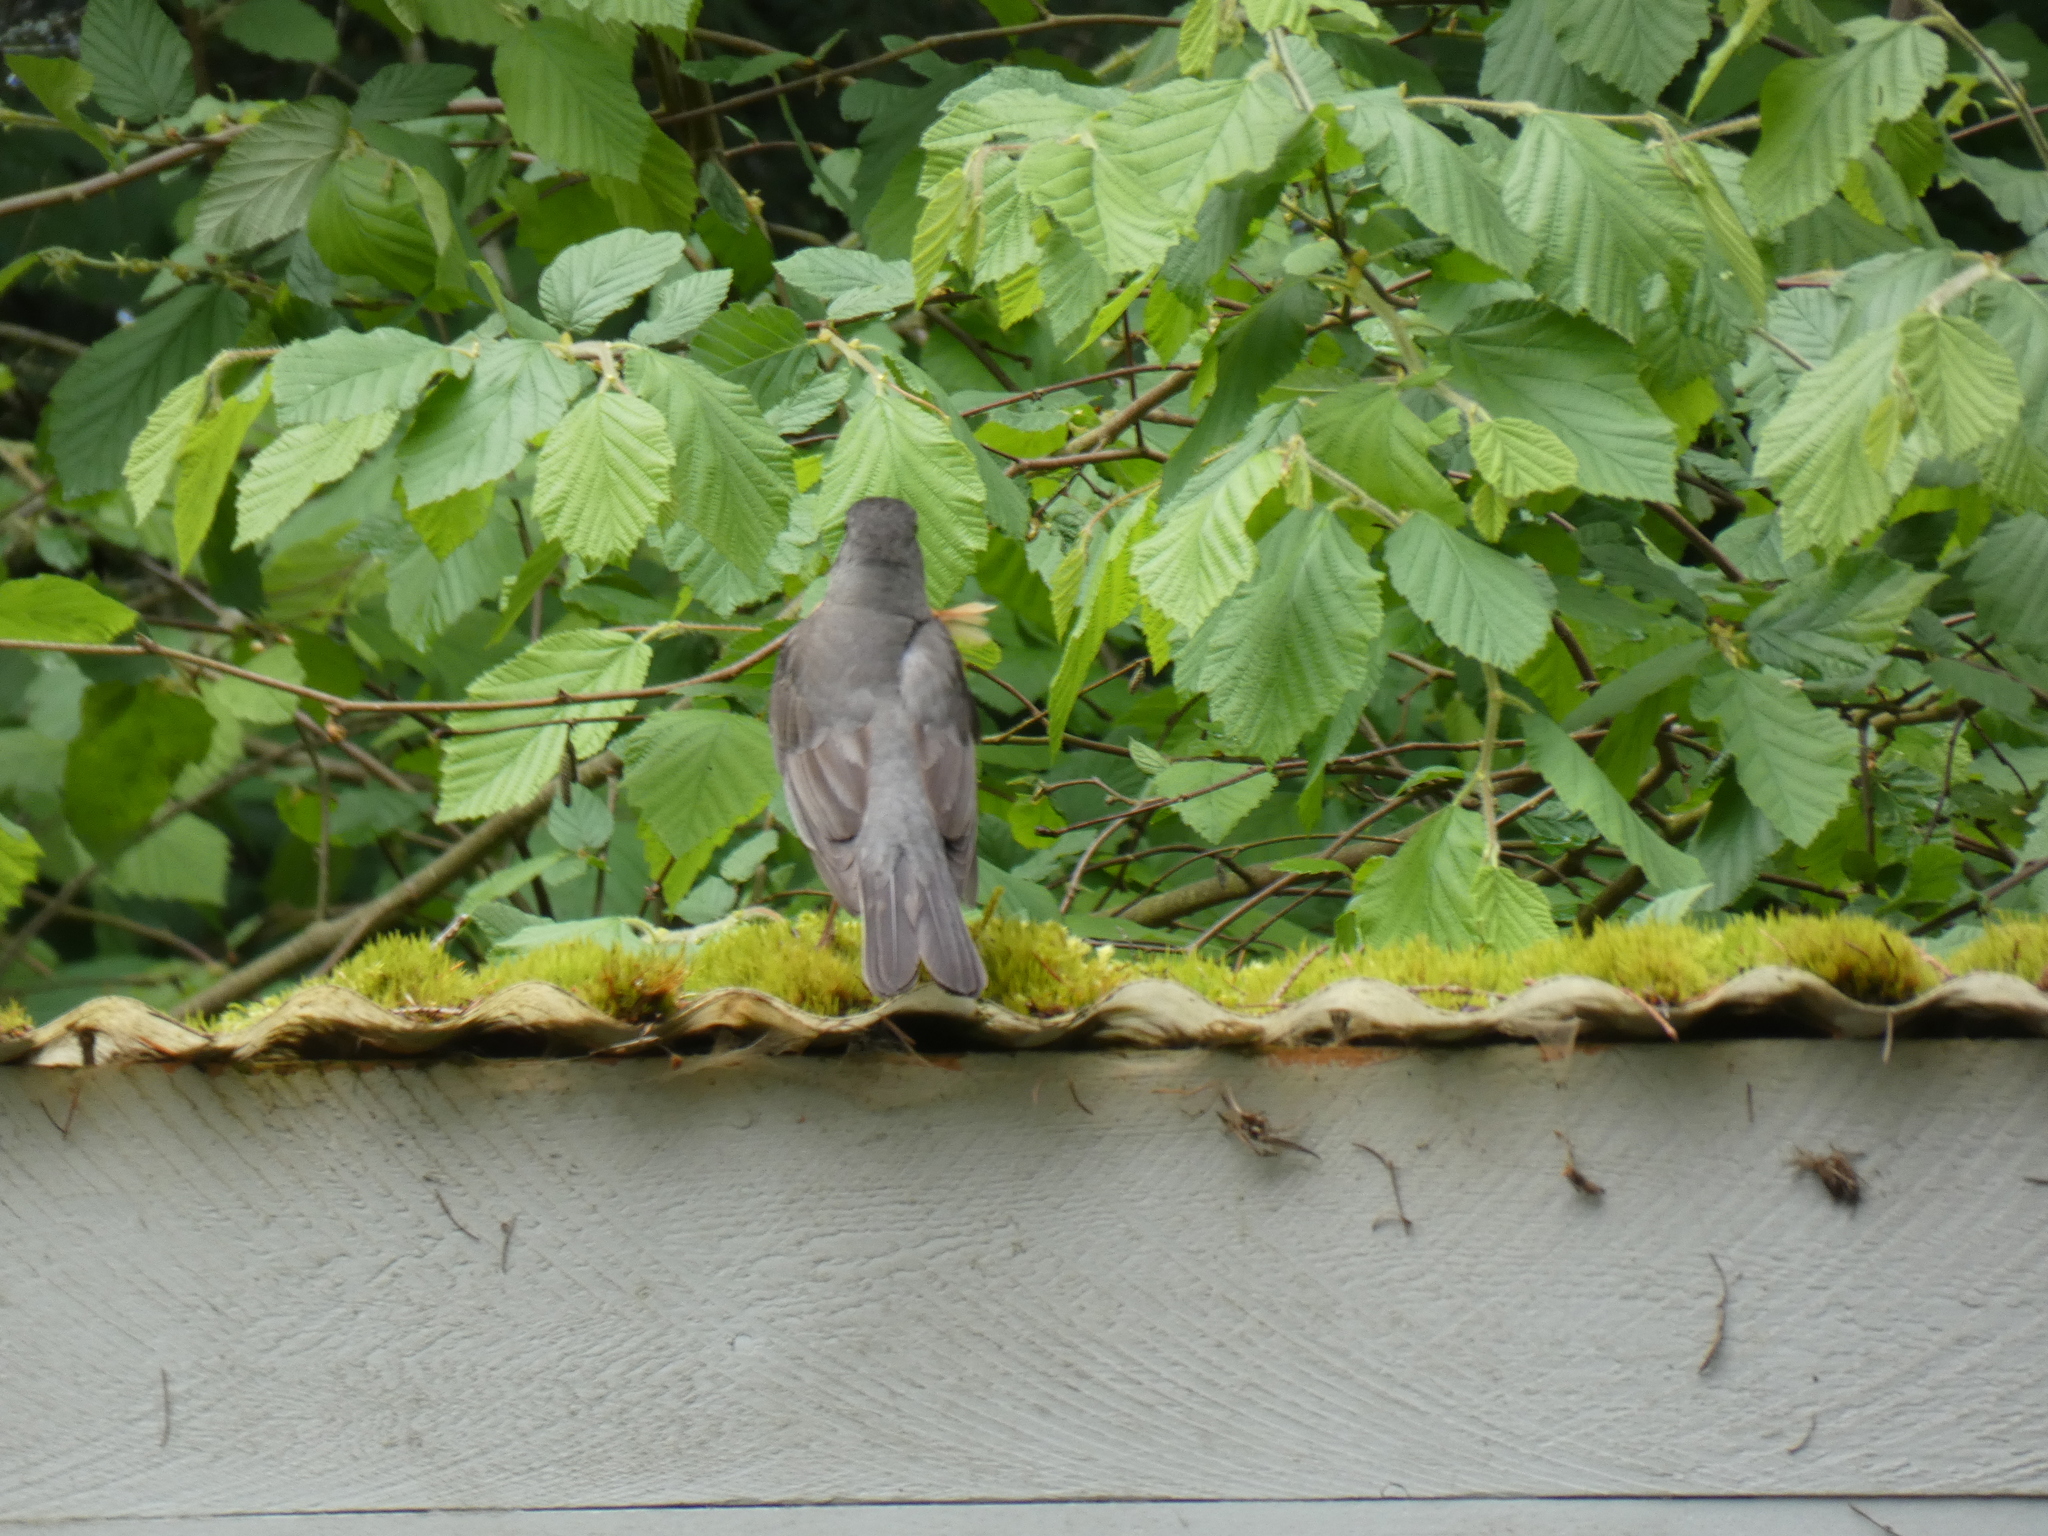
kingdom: Animalia
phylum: Chordata
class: Aves
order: Passeriformes
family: Turdidae
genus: Turdus
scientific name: Turdus migratorius
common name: American robin
